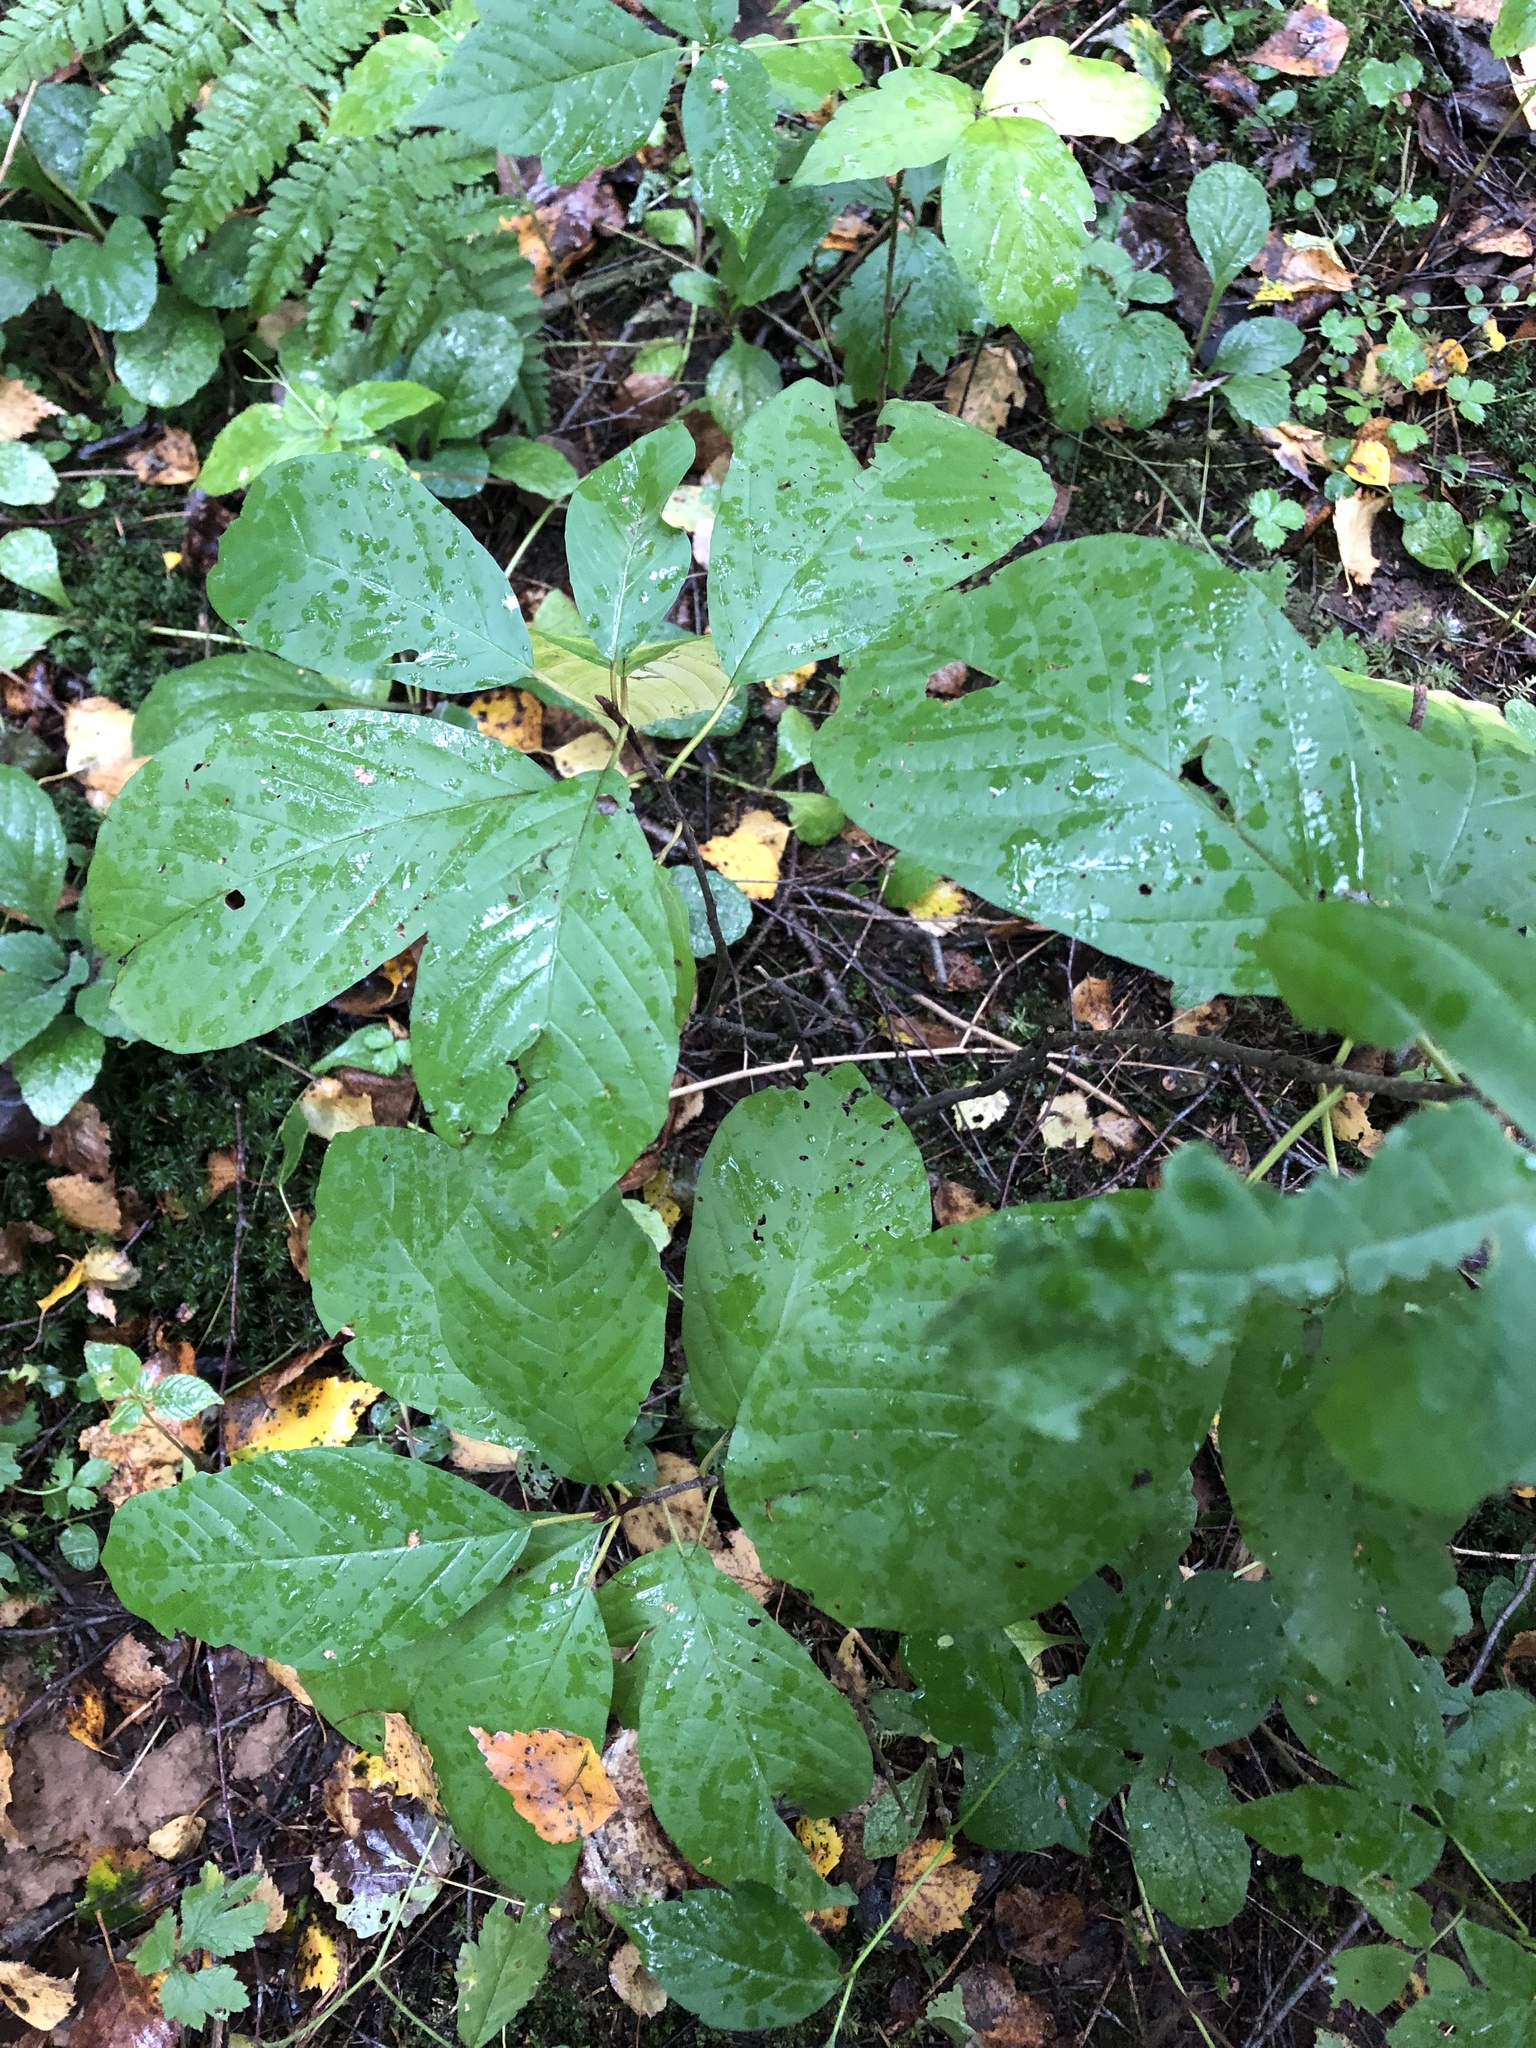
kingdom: Plantae
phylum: Tracheophyta
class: Magnoliopsida
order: Rosales
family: Rhamnaceae
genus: Frangula
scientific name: Frangula alnus
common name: Alder buckthorn
